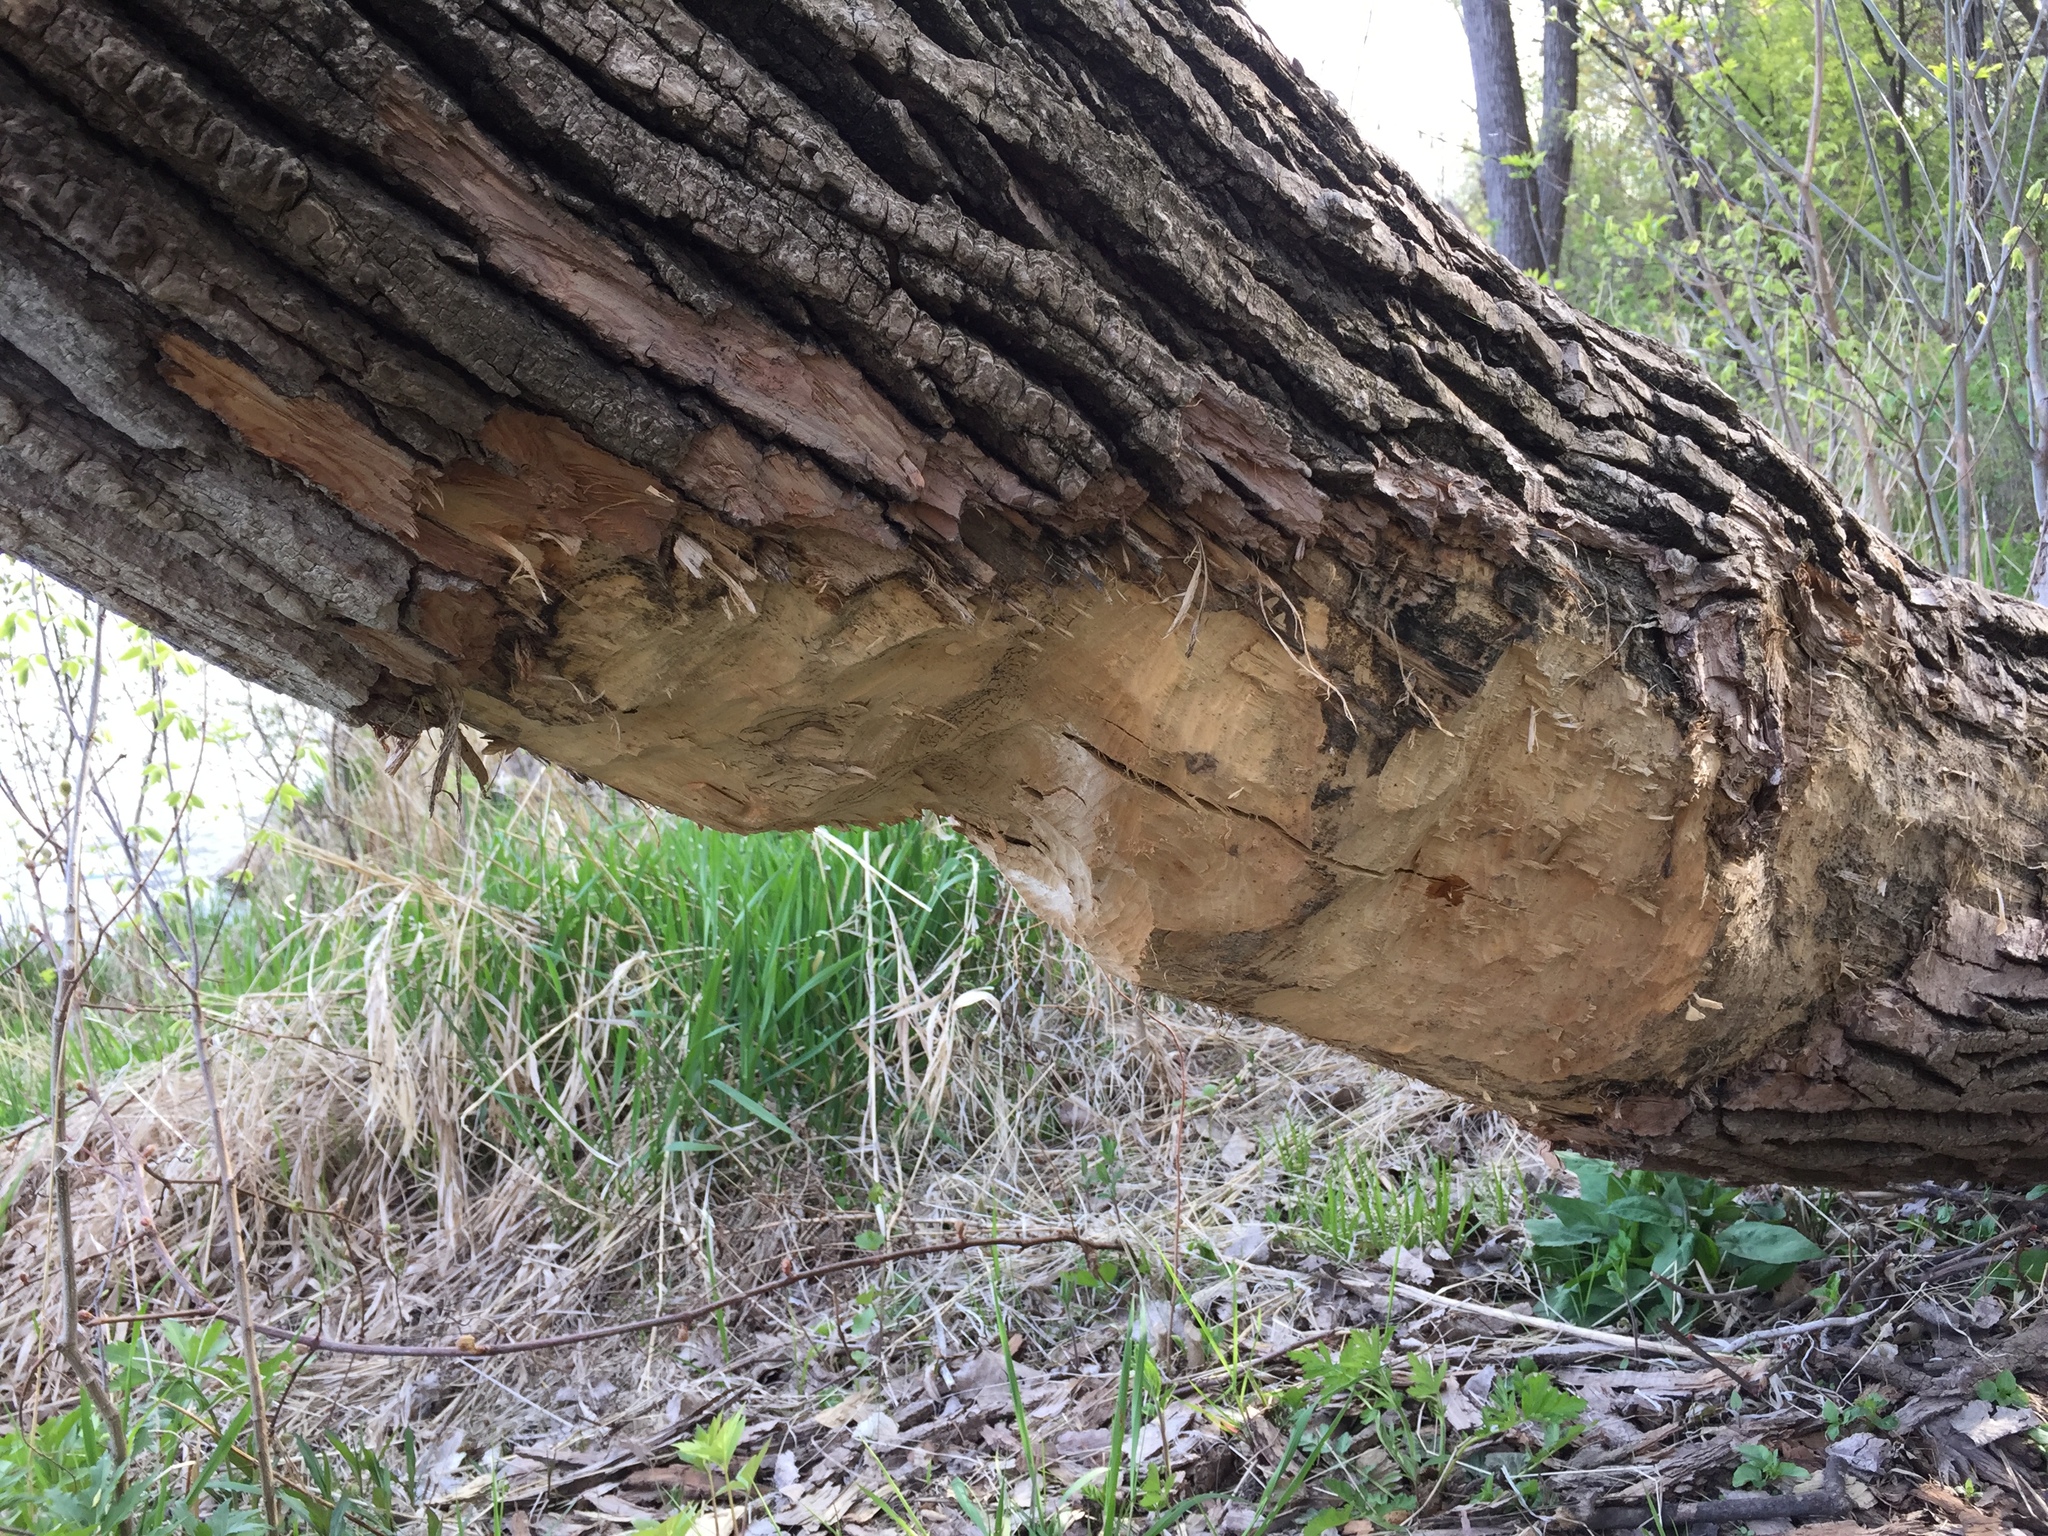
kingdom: Animalia
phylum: Chordata
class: Mammalia
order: Rodentia
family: Castoridae
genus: Castor
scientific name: Castor canadensis
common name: American beaver
